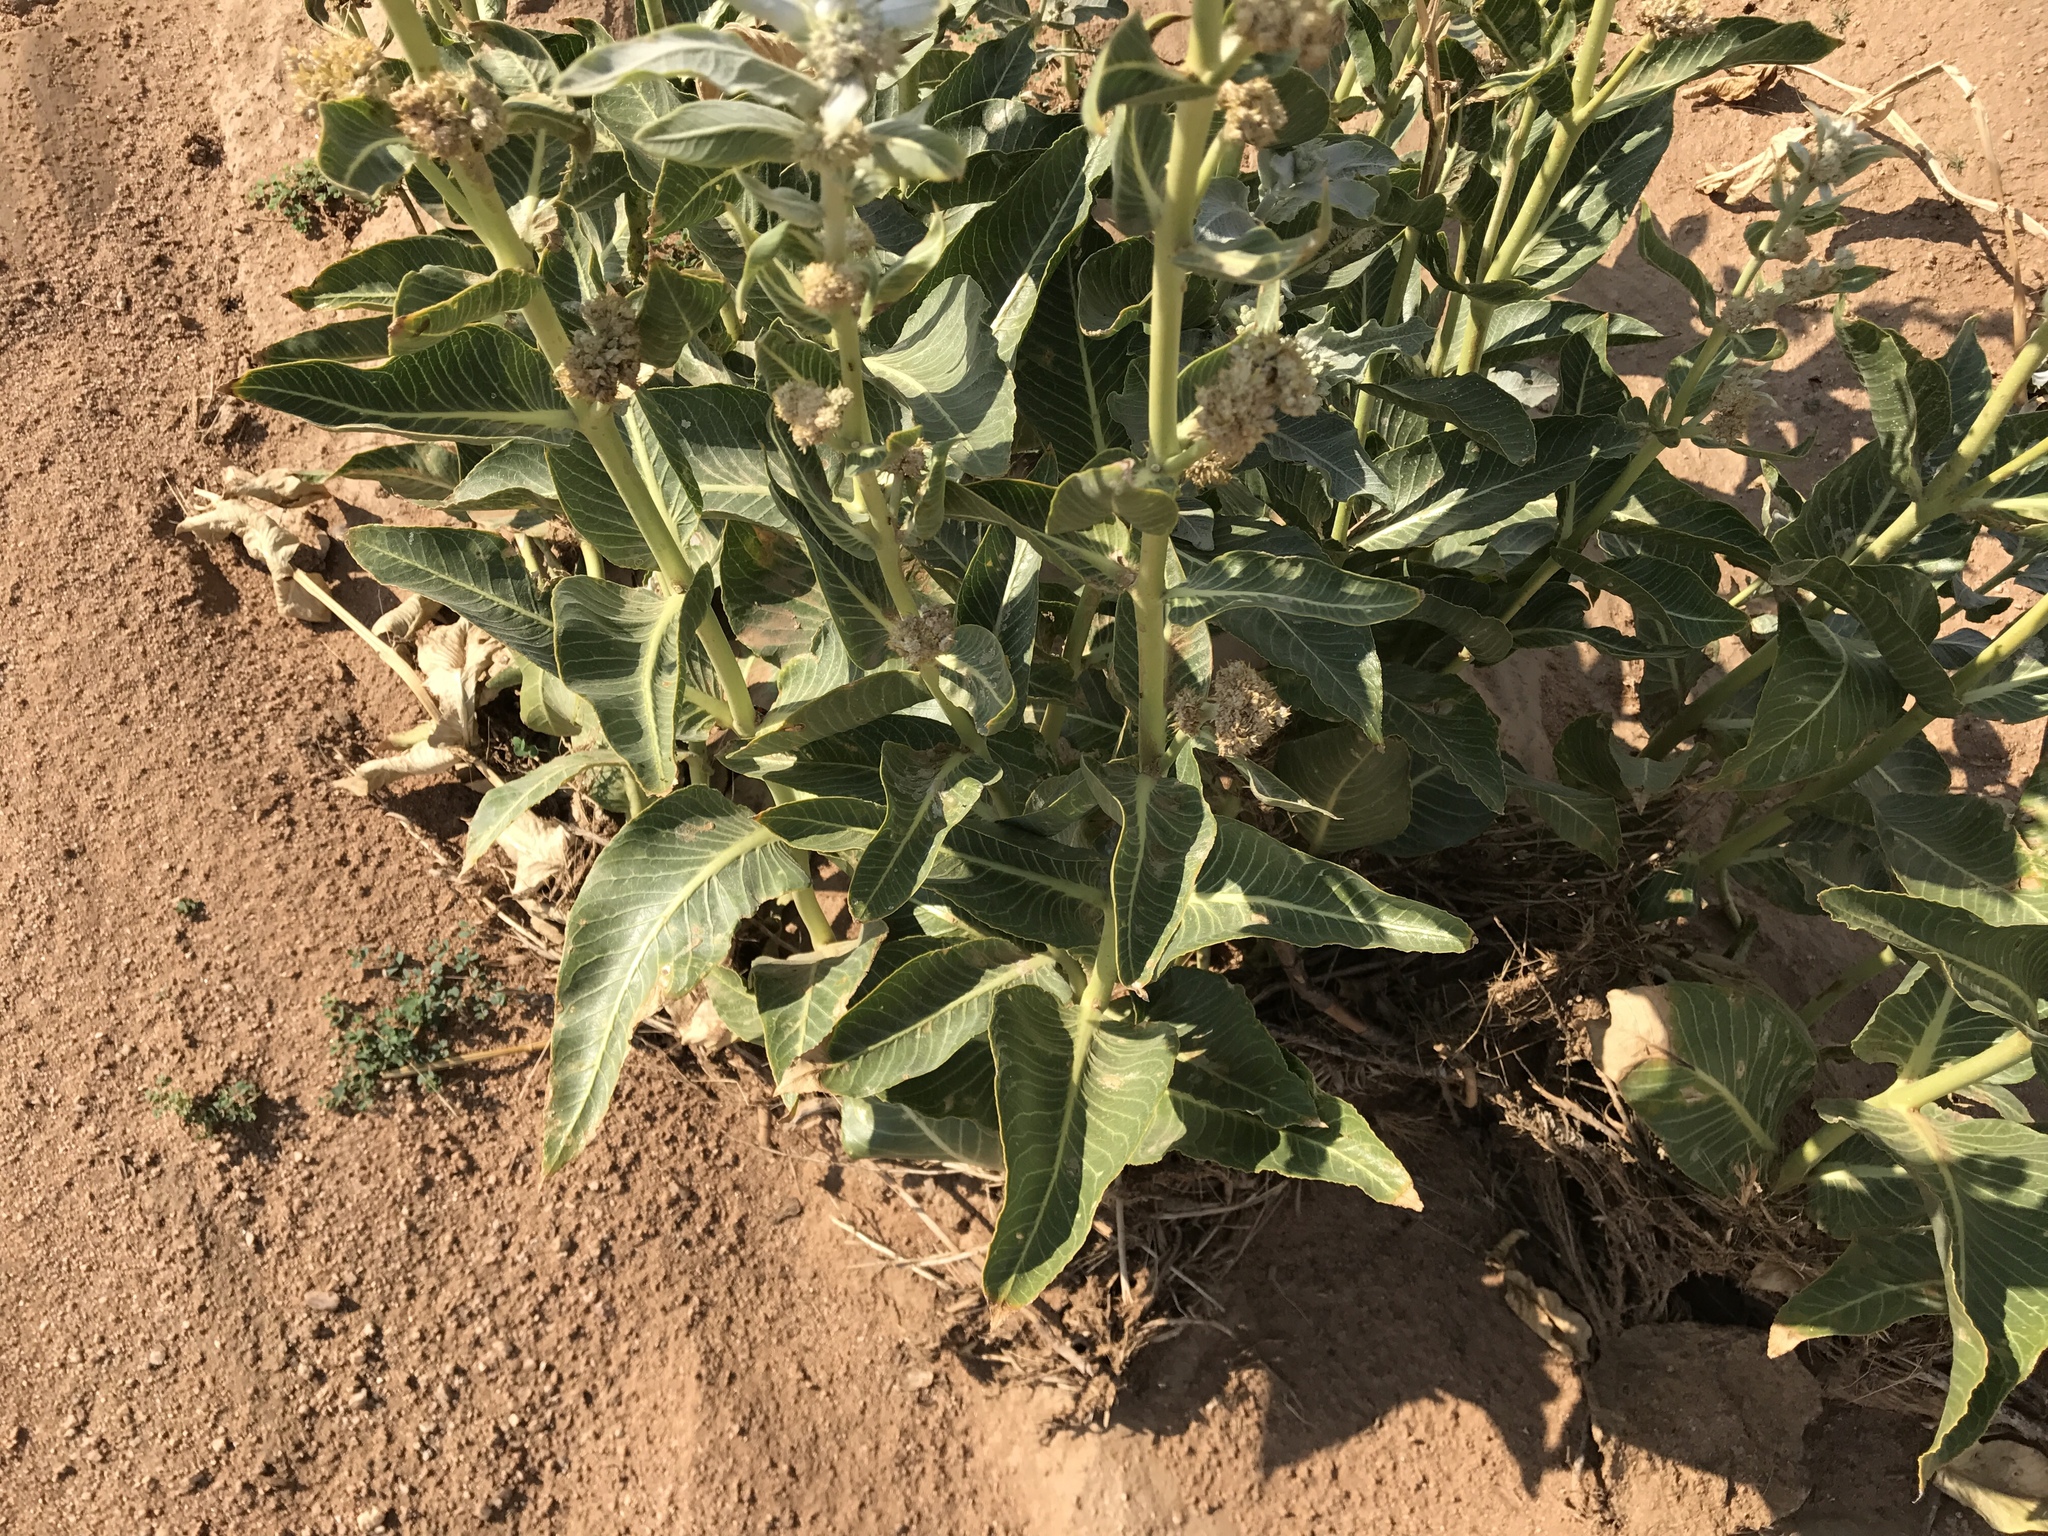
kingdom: Plantae
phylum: Tracheophyta
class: Magnoliopsida
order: Gentianales
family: Apocynaceae
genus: Asclepias
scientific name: Asclepias erosa
